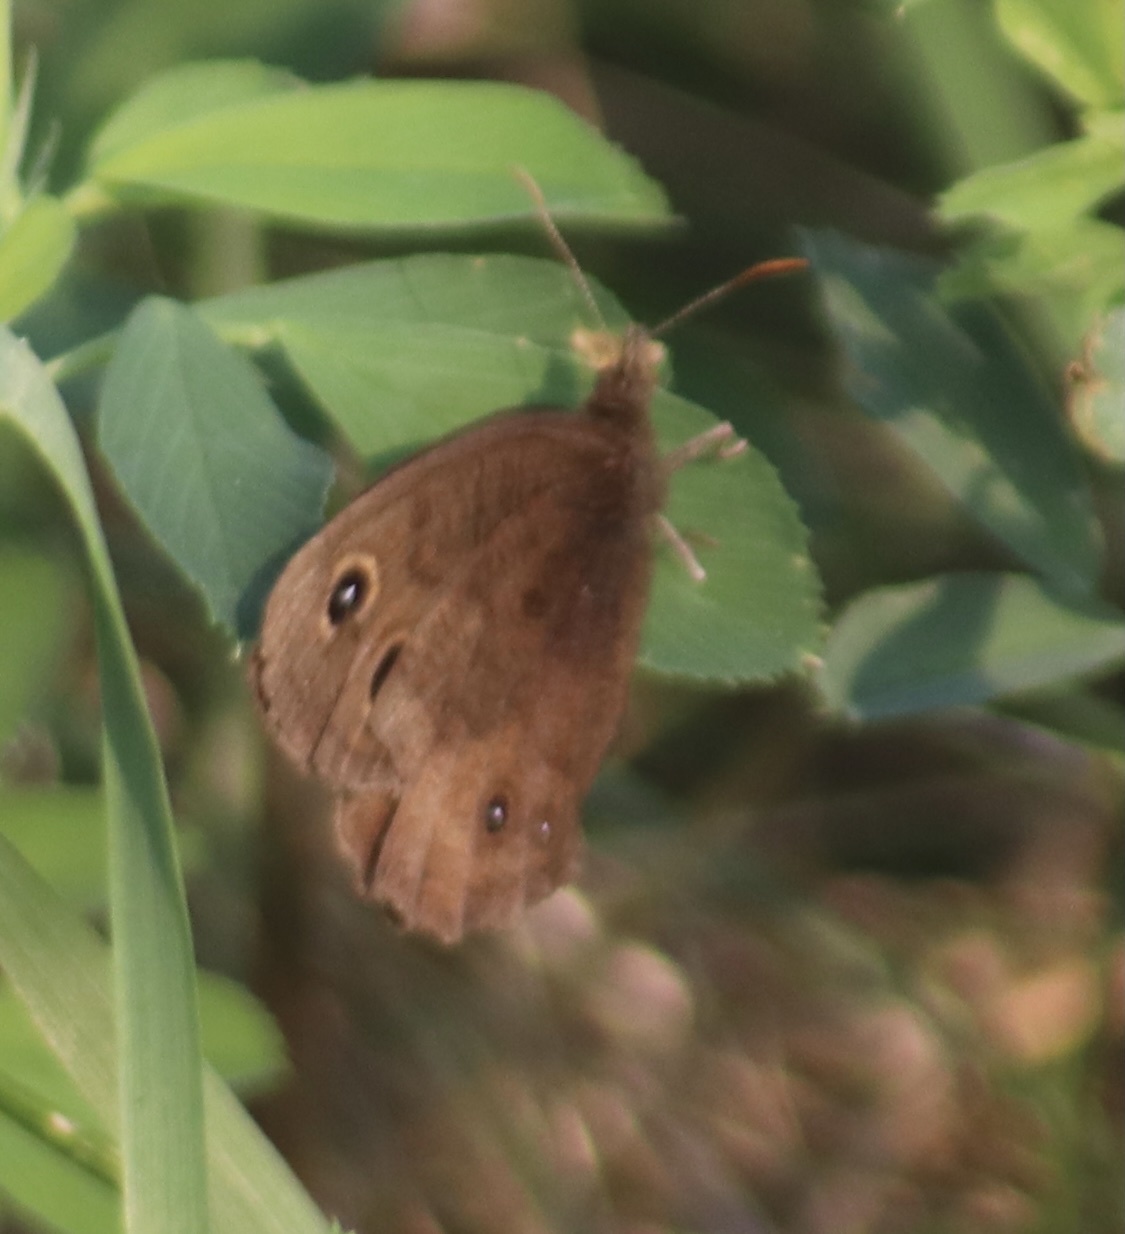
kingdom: Animalia
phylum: Arthropoda
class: Insecta
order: Lepidoptera
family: Nymphalidae
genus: Cercyonis
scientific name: Cercyonis pegala
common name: Common wood-nymph
